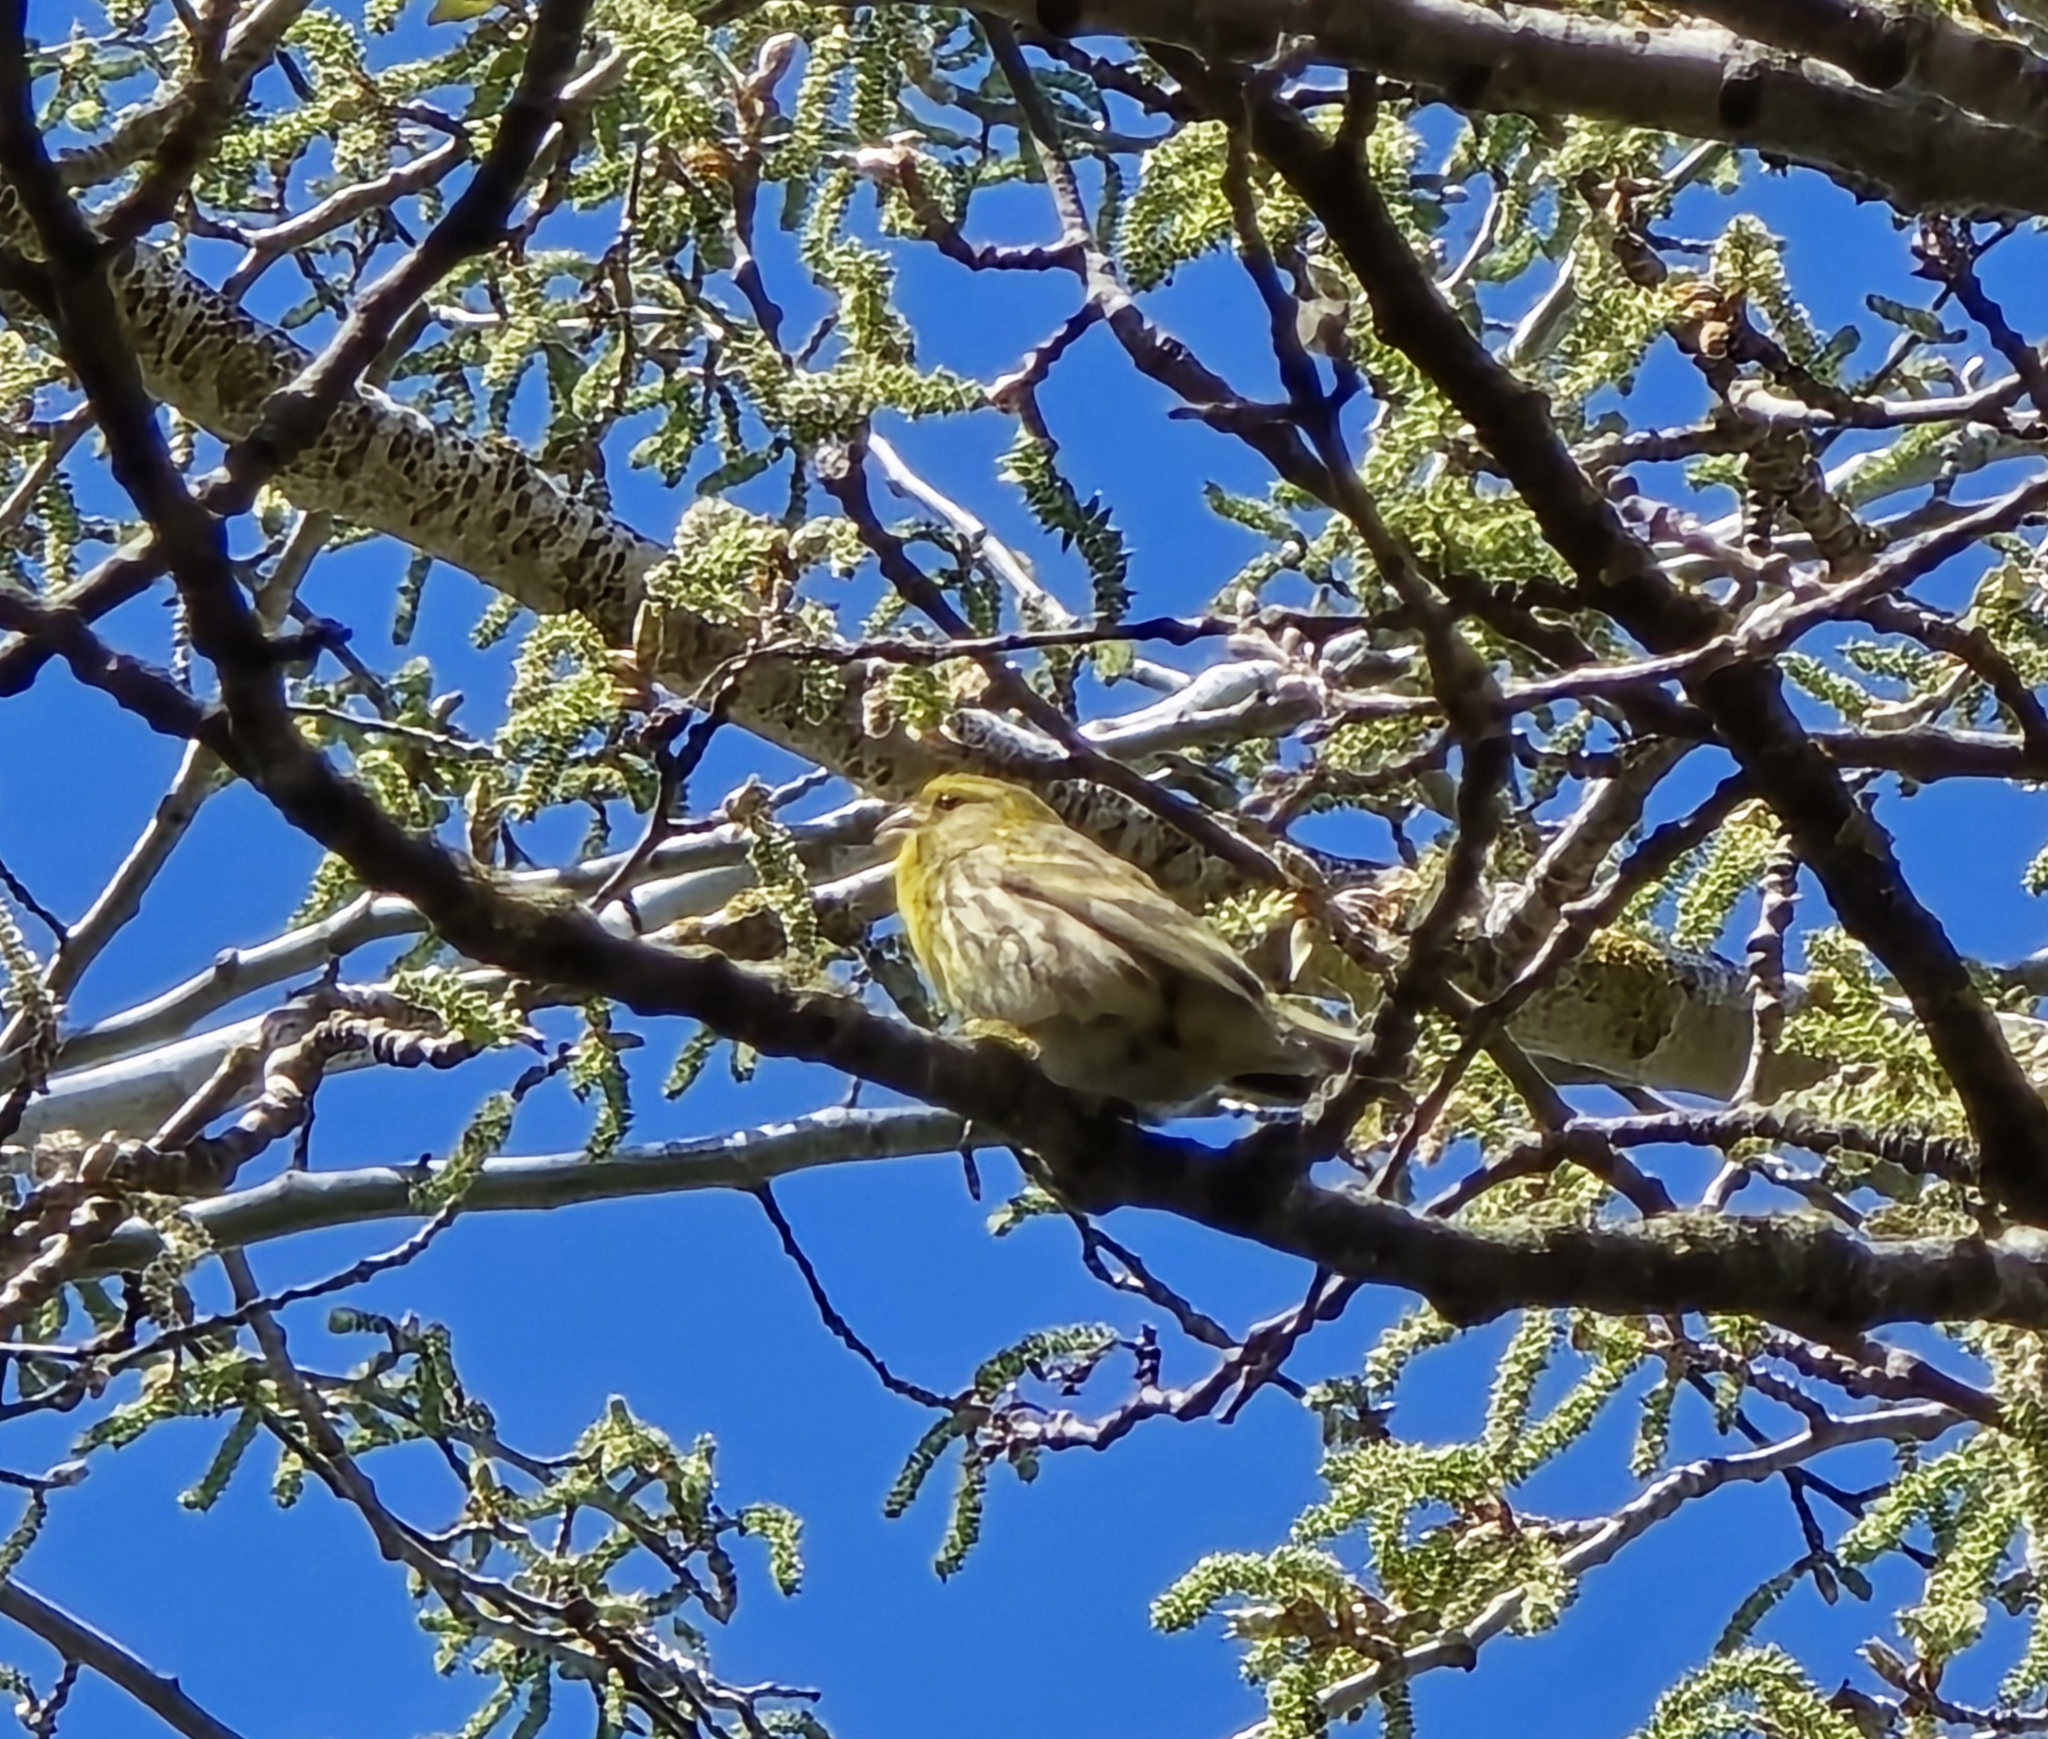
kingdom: Animalia
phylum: Chordata
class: Aves
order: Passeriformes
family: Fringillidae
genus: Serinus
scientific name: Serinus serinus
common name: European serin
